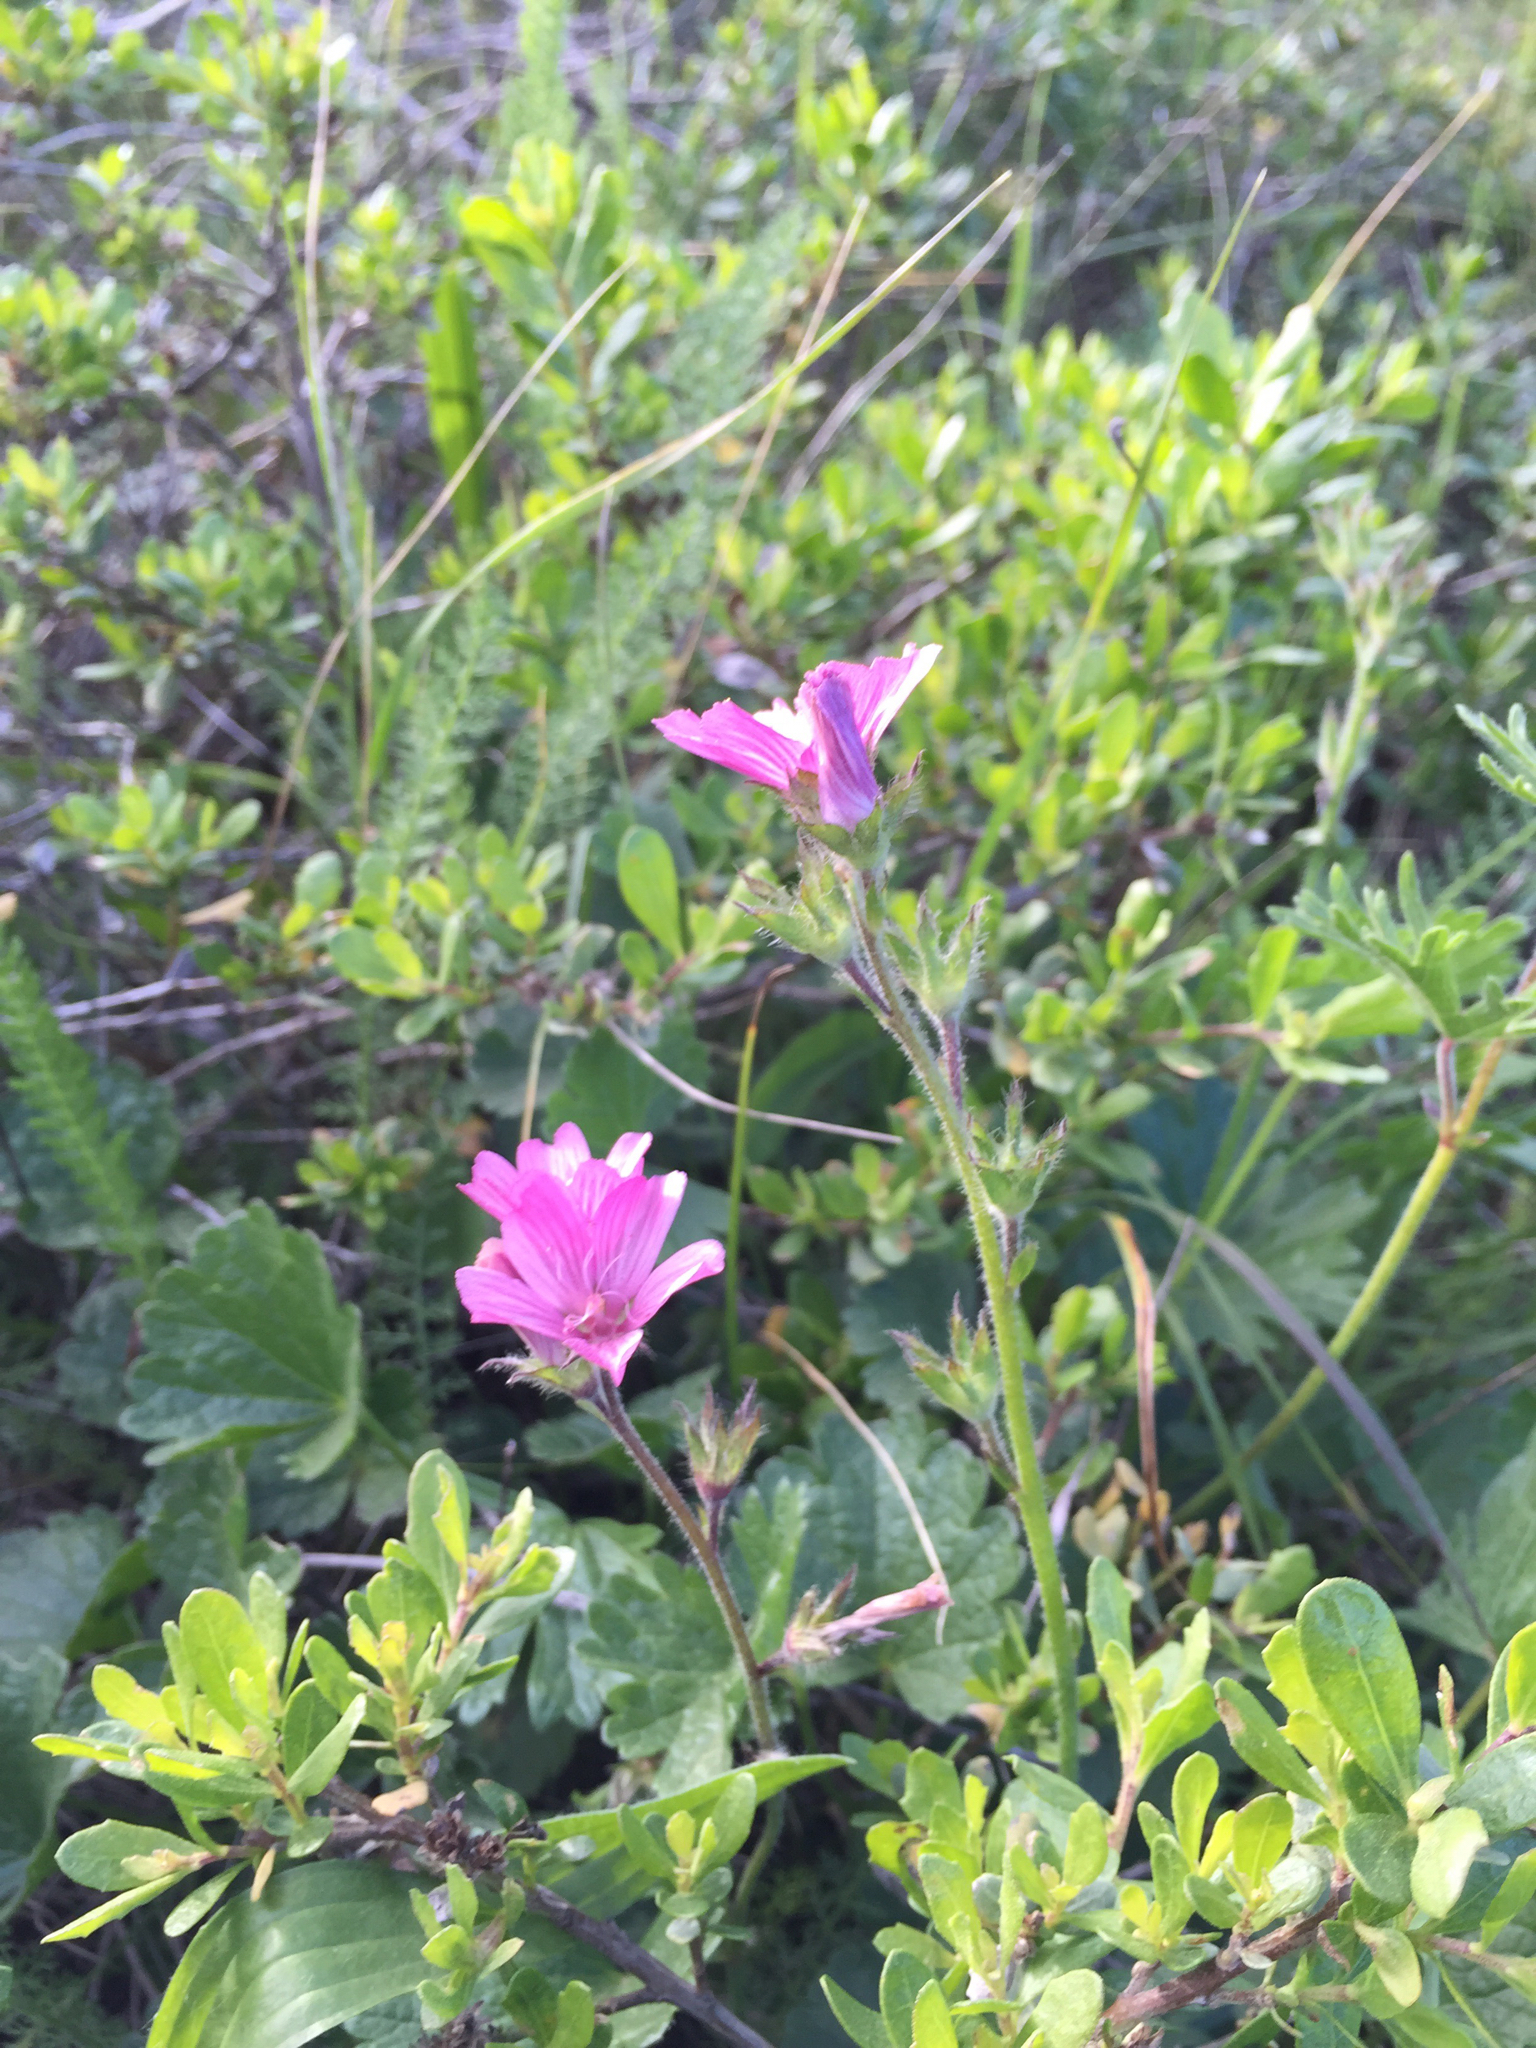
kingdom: Plantae
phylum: Tracheophyta
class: Magnoliopsida
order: Malvales
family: Malvaceae
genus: Sidalcea
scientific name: Sidalcea malviflora
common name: Greek mallow
